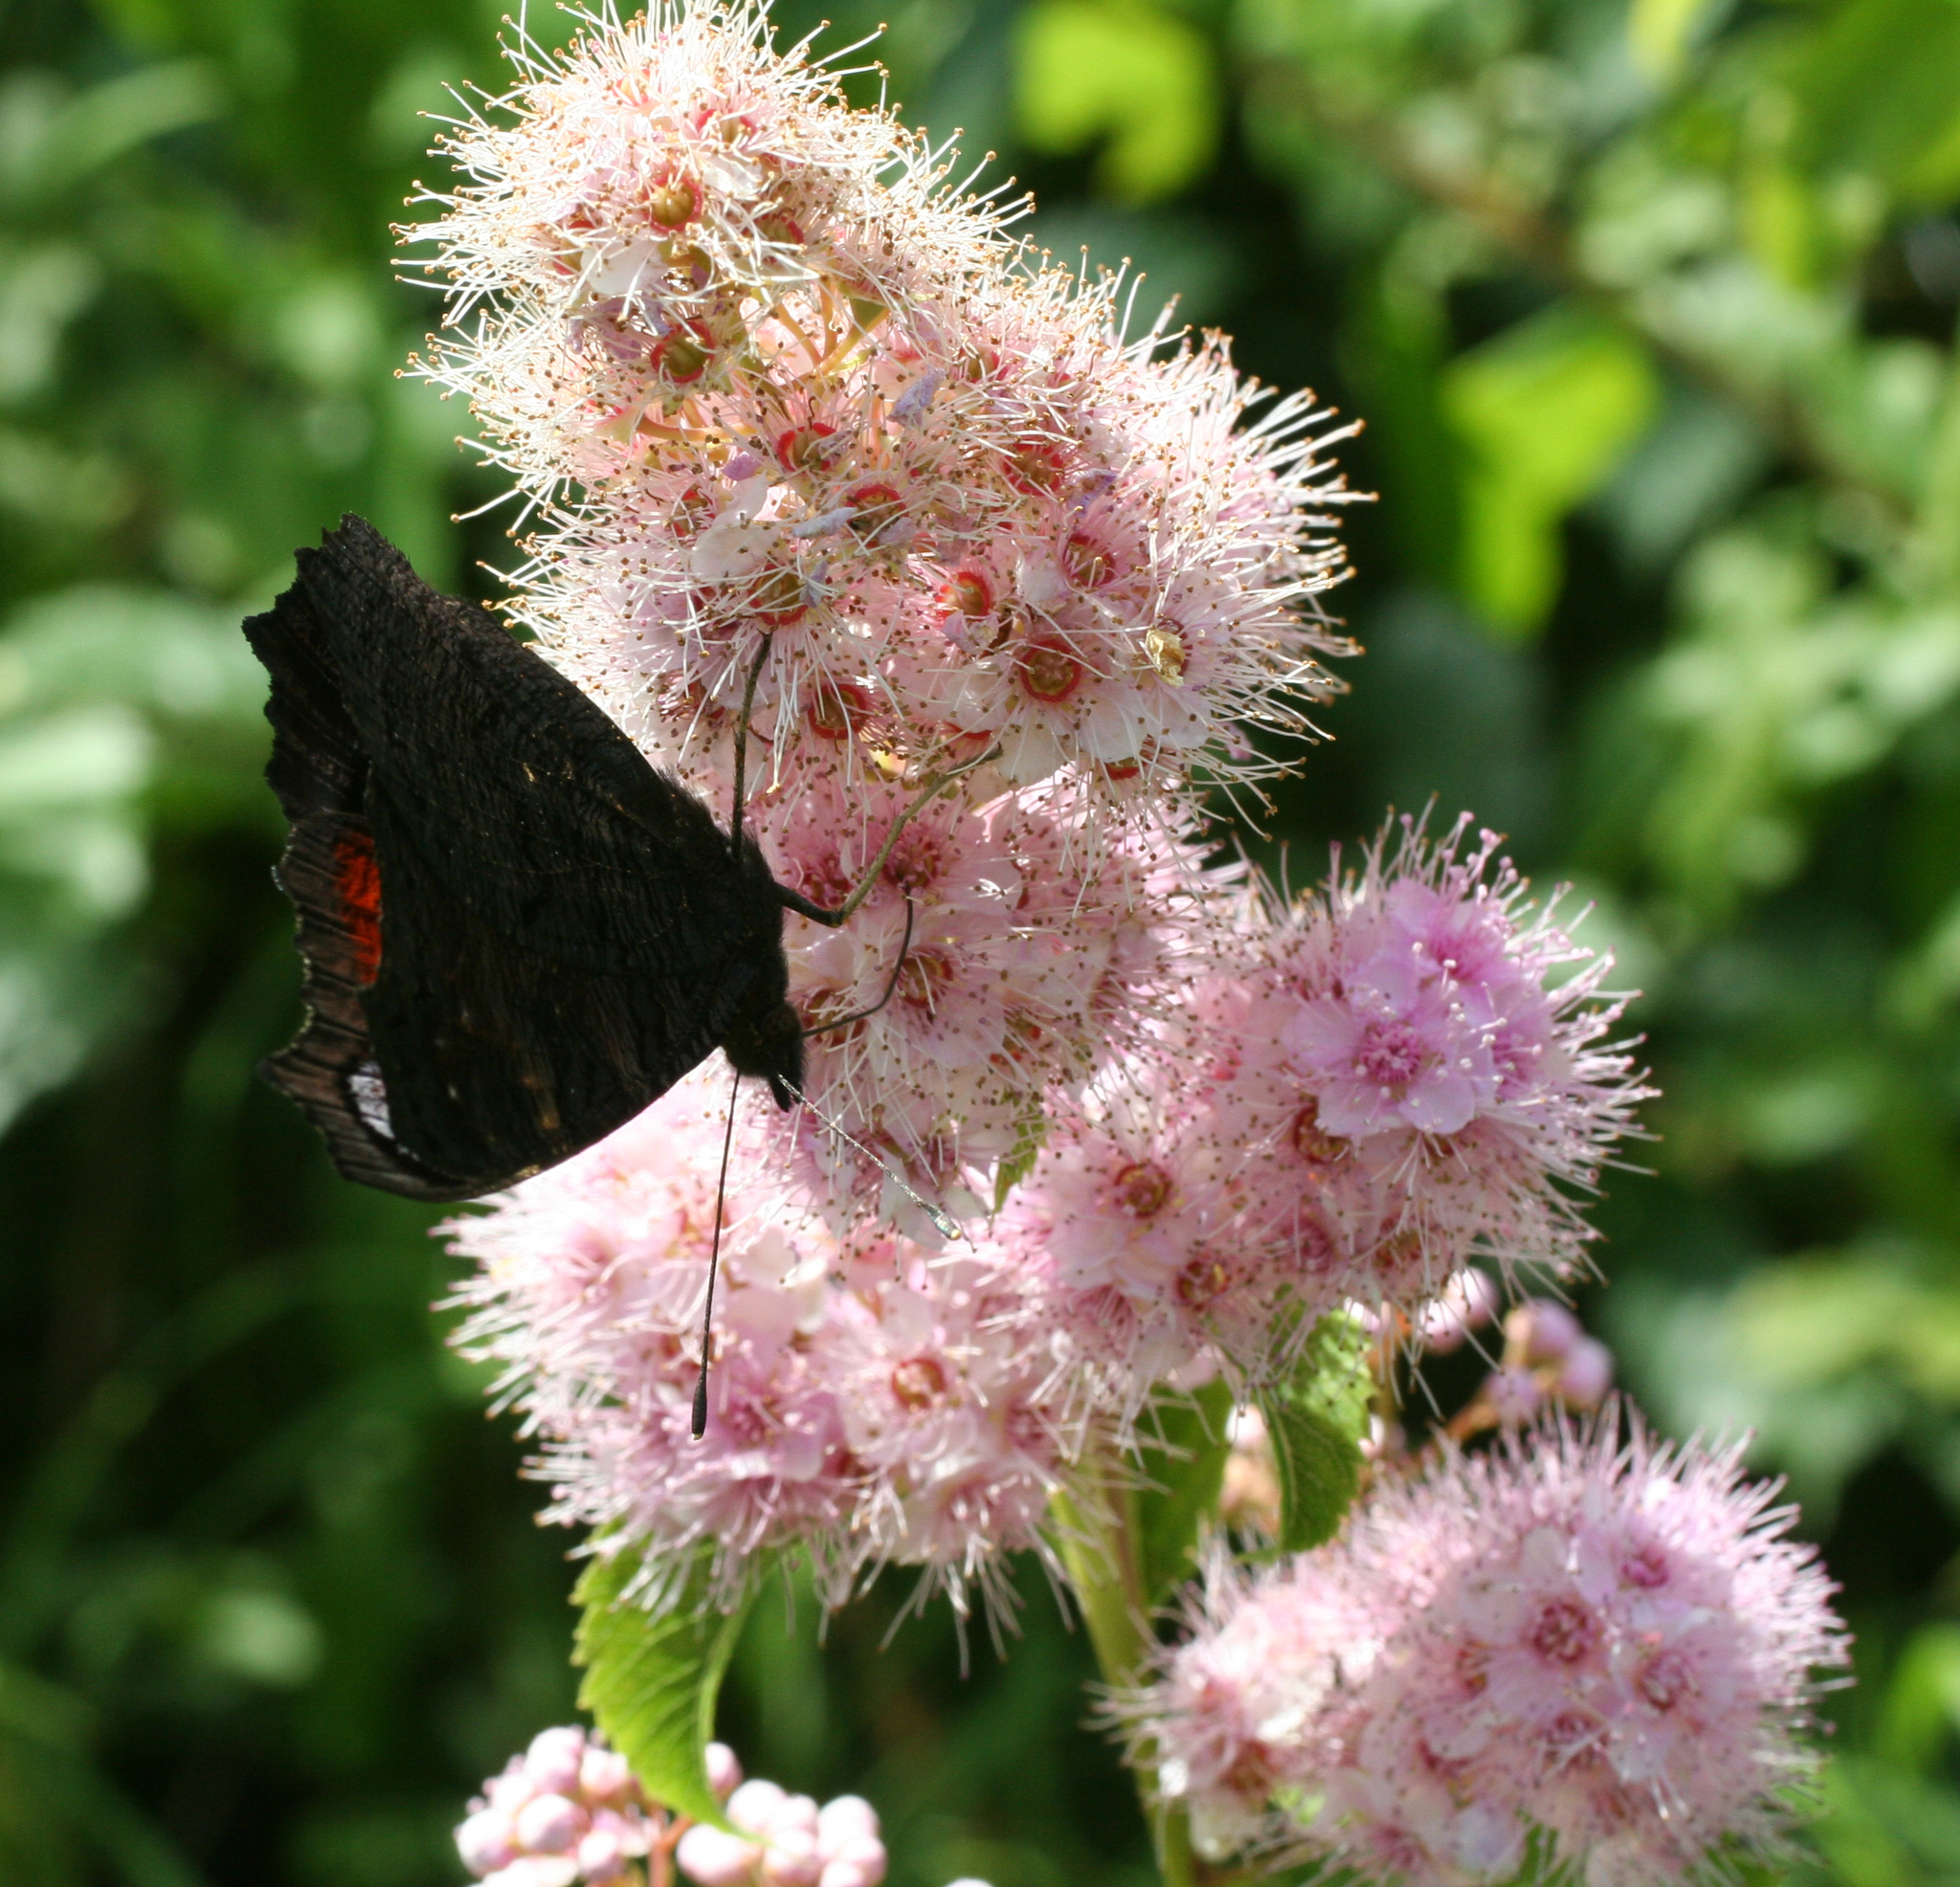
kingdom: Plantae
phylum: Tracheophyta
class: Magnoliopsida
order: Rosales
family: Rosaceae
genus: Spiraea
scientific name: Spiraea salicifolia
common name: Bridewort
